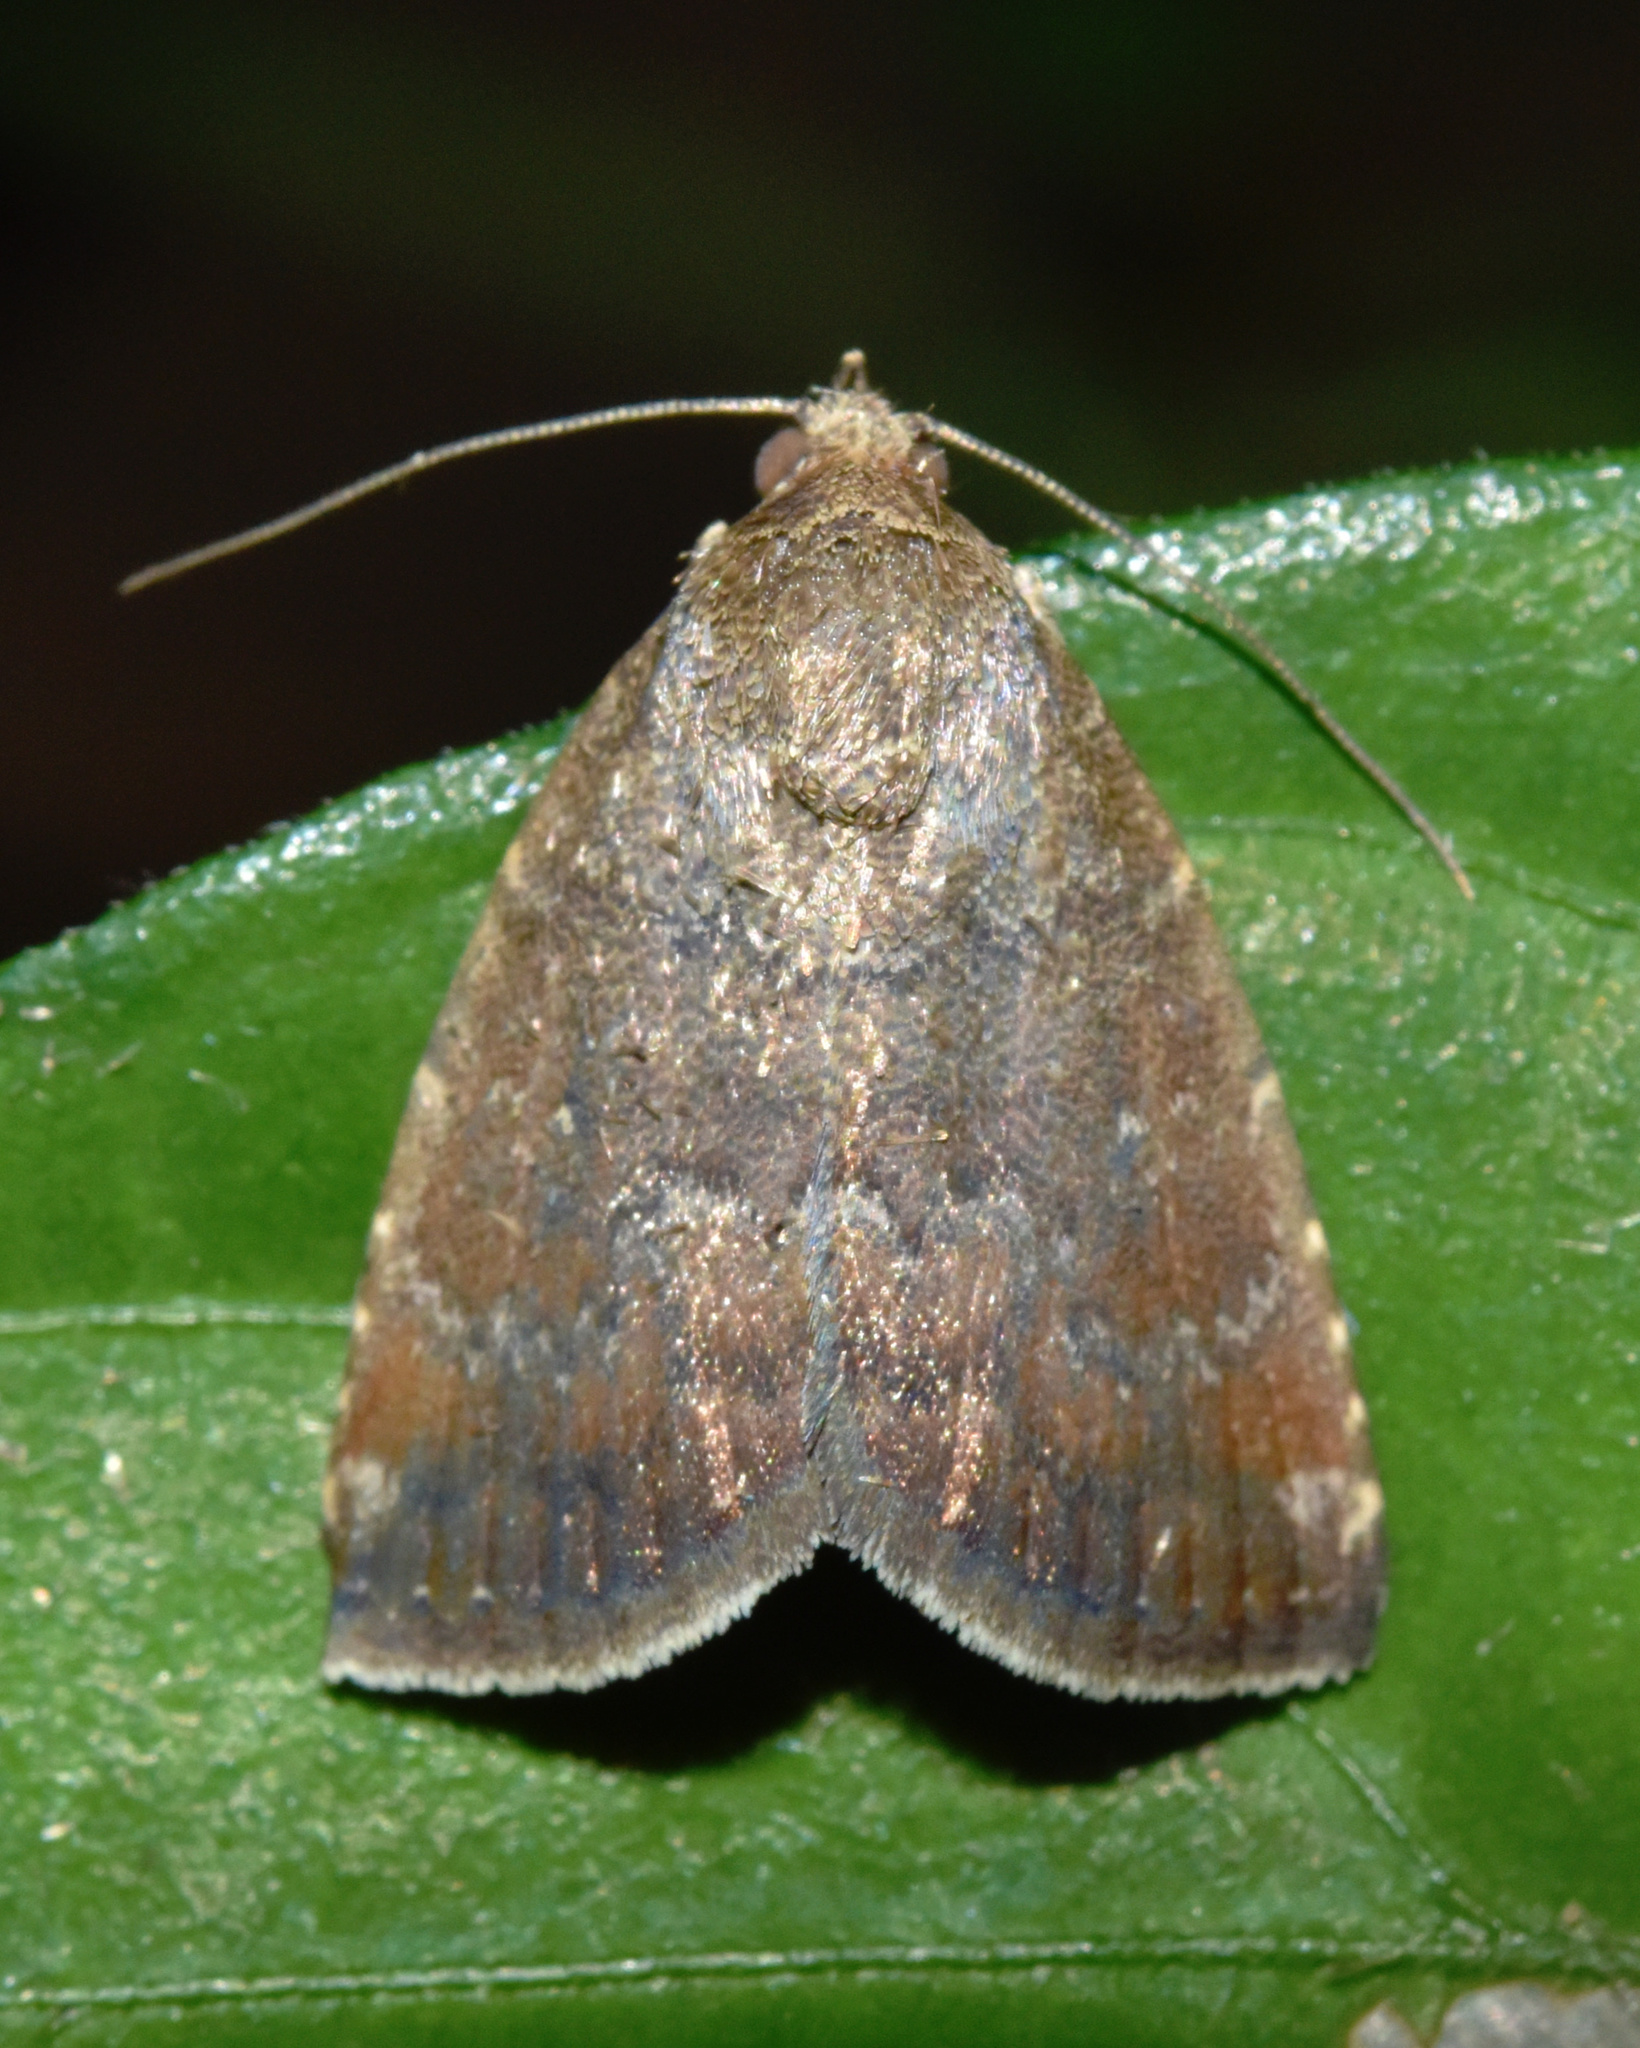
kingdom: Animalia
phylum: Arthropoda
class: Insecta
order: Lepidoptera
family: Noctuidae
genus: Amyna
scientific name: Amyna axis
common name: Cutworm
